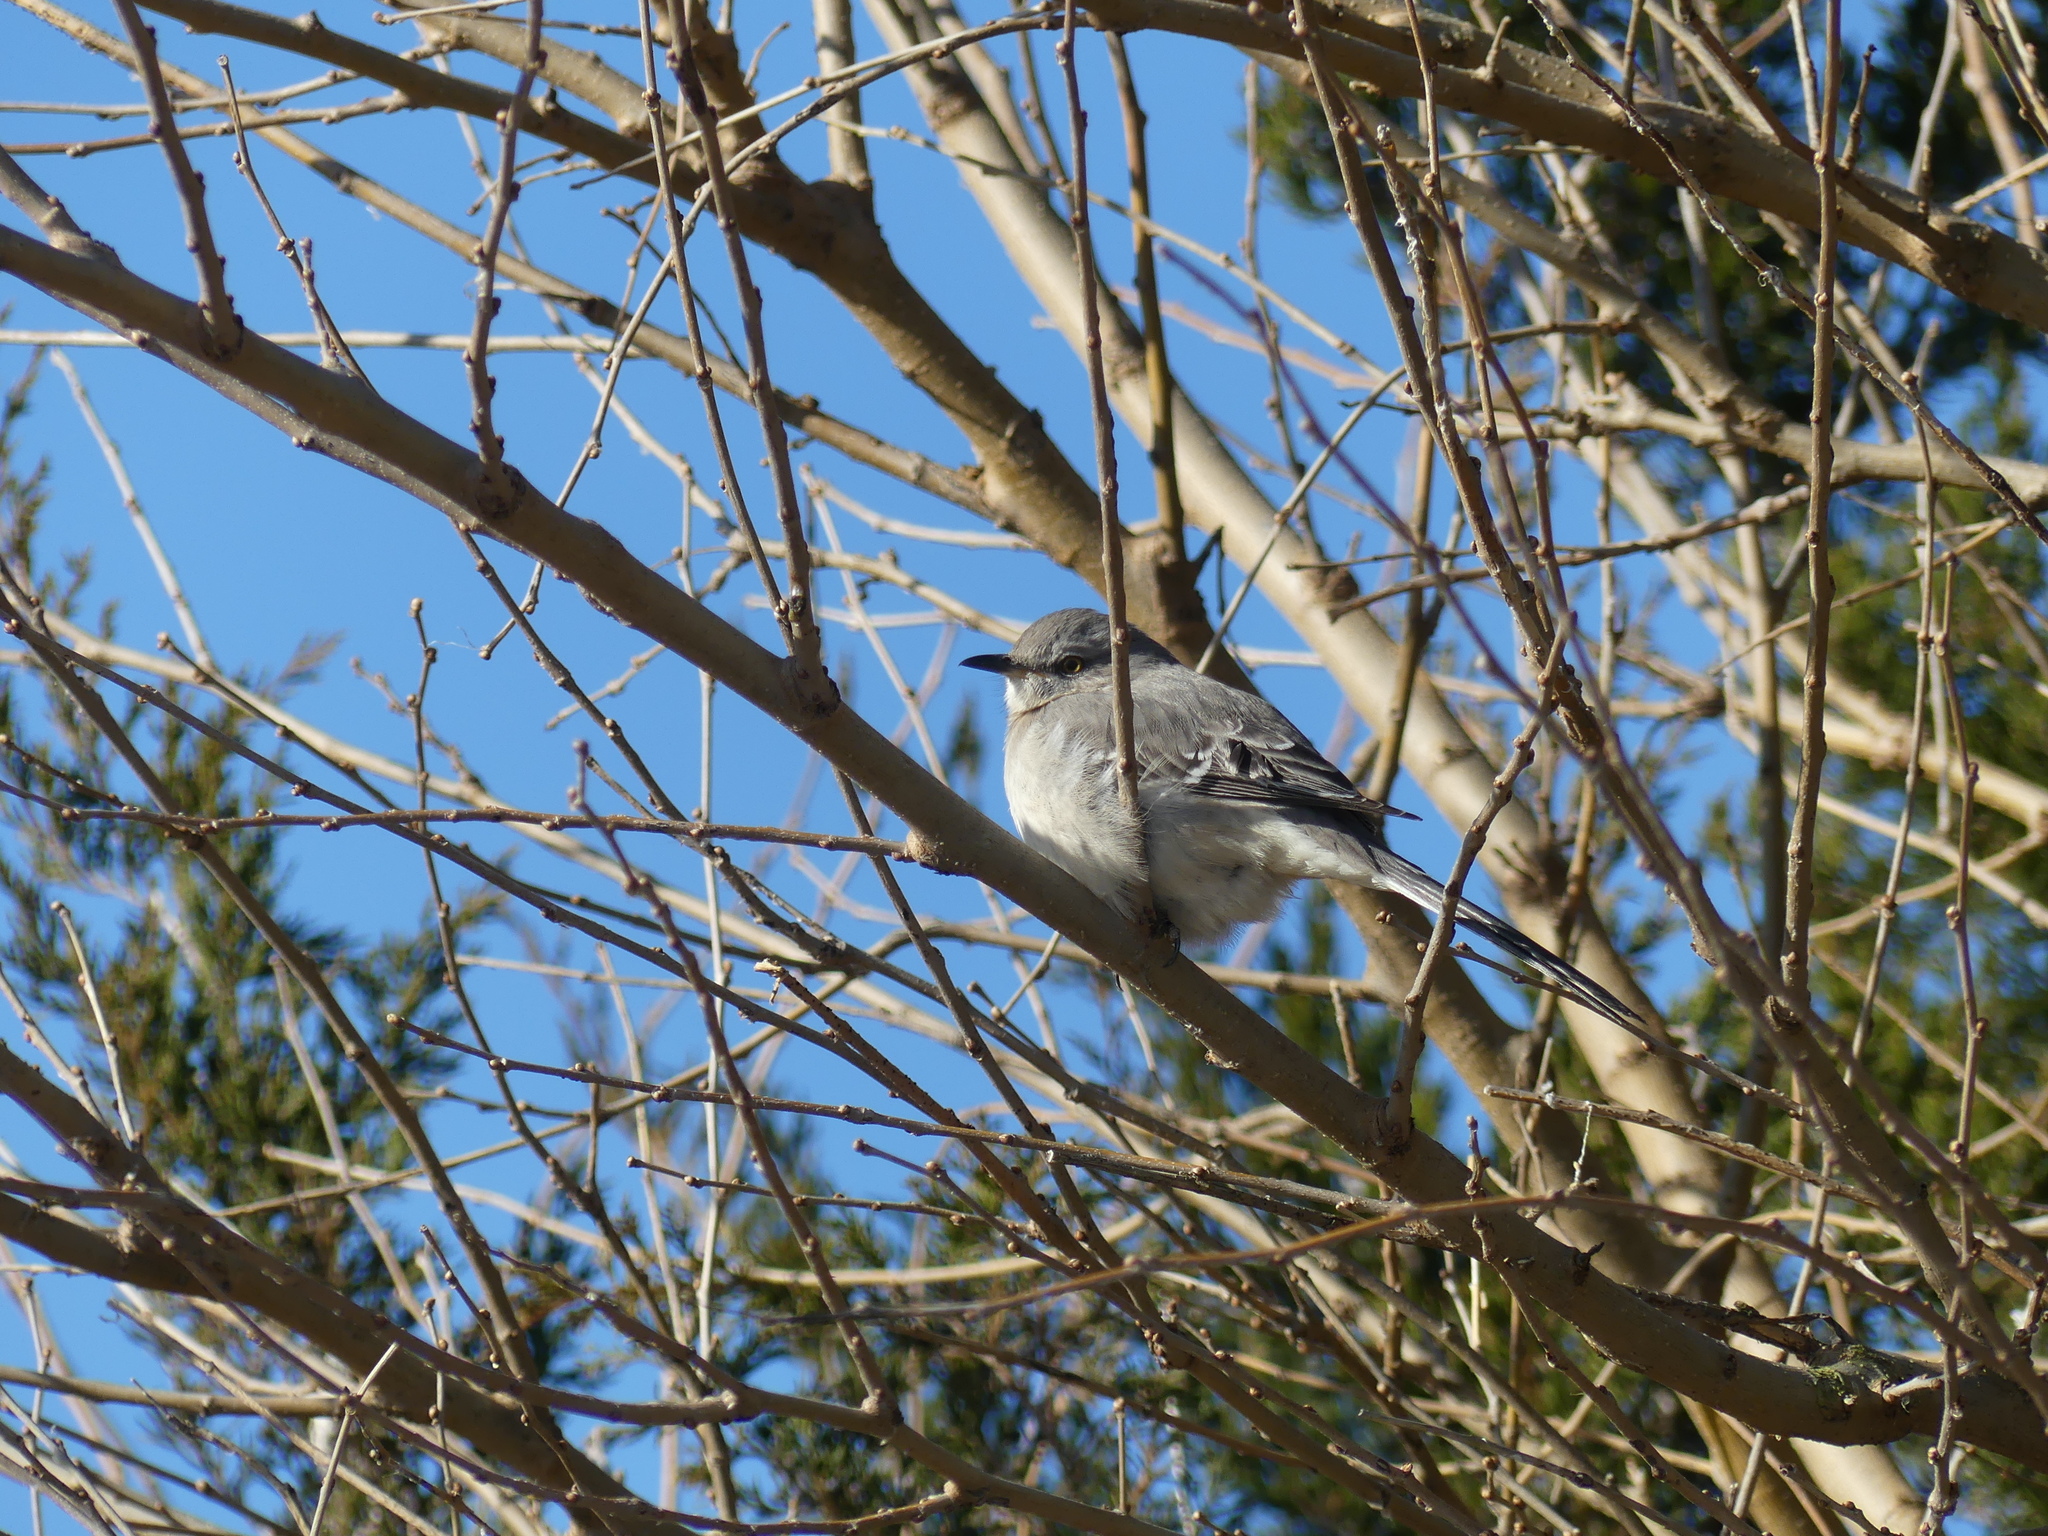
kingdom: Animalia
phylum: Chordata
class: Aves
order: Passeriformes
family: Mimidae
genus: Mimus
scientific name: Mimus polyglottos
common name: Northern mockingbird
